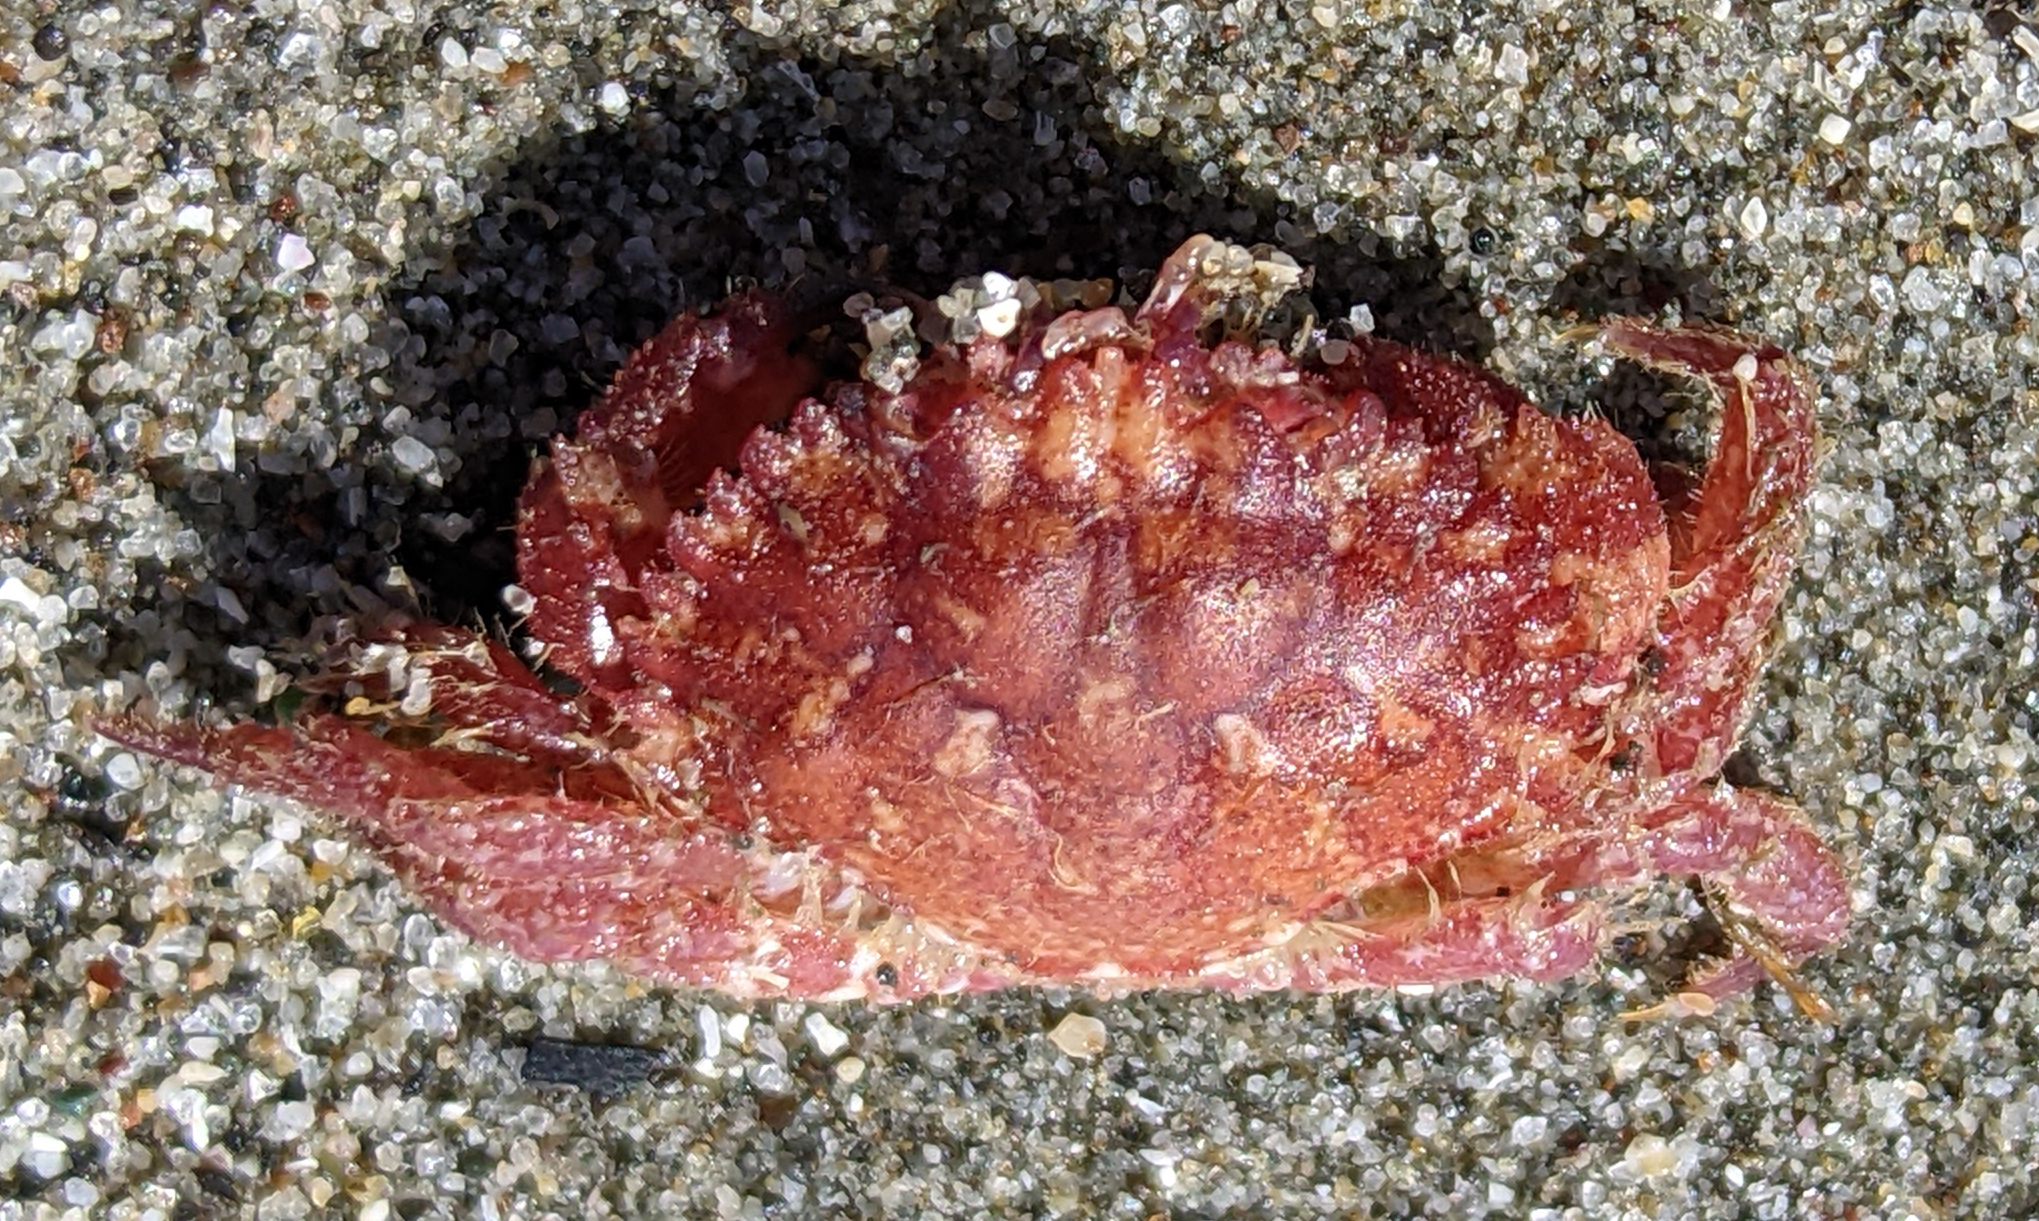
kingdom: Animalia
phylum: Arthropoda
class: Malacostraca
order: Decapoda
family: Cancridae
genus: Romaleon
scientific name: Romaleon antennarium
